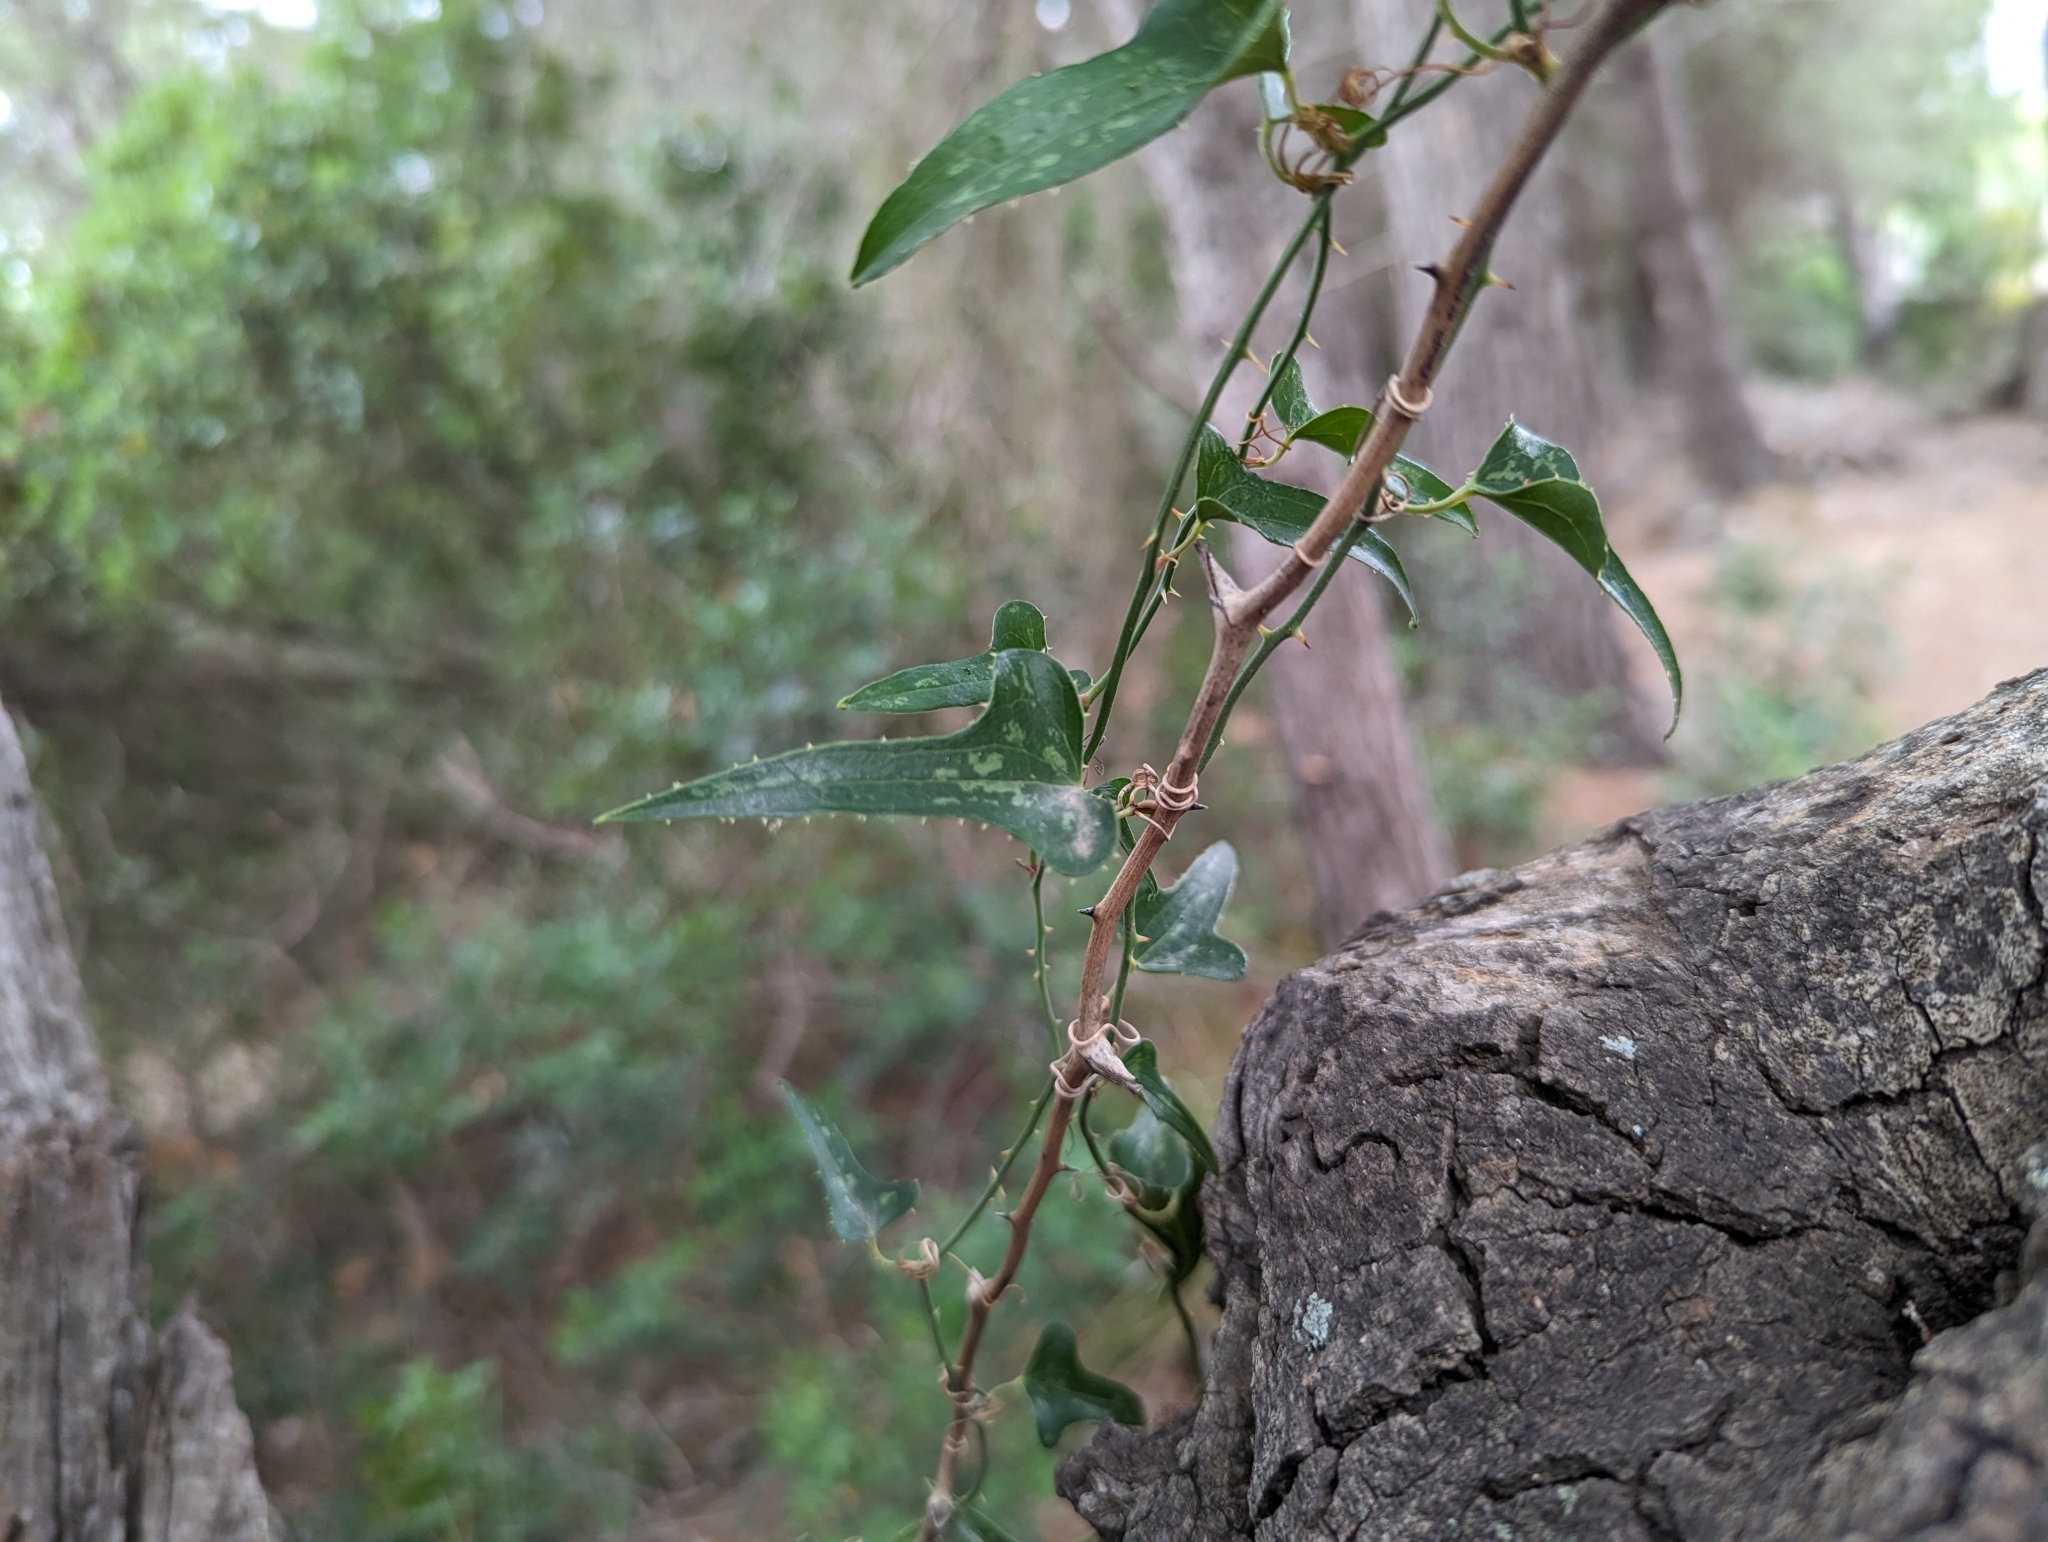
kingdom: Plantae
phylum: Tracheophyta
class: Liliopsida
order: Liliales
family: Smilacaceae
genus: Smilax
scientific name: Smilax aspera
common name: Common smilax
